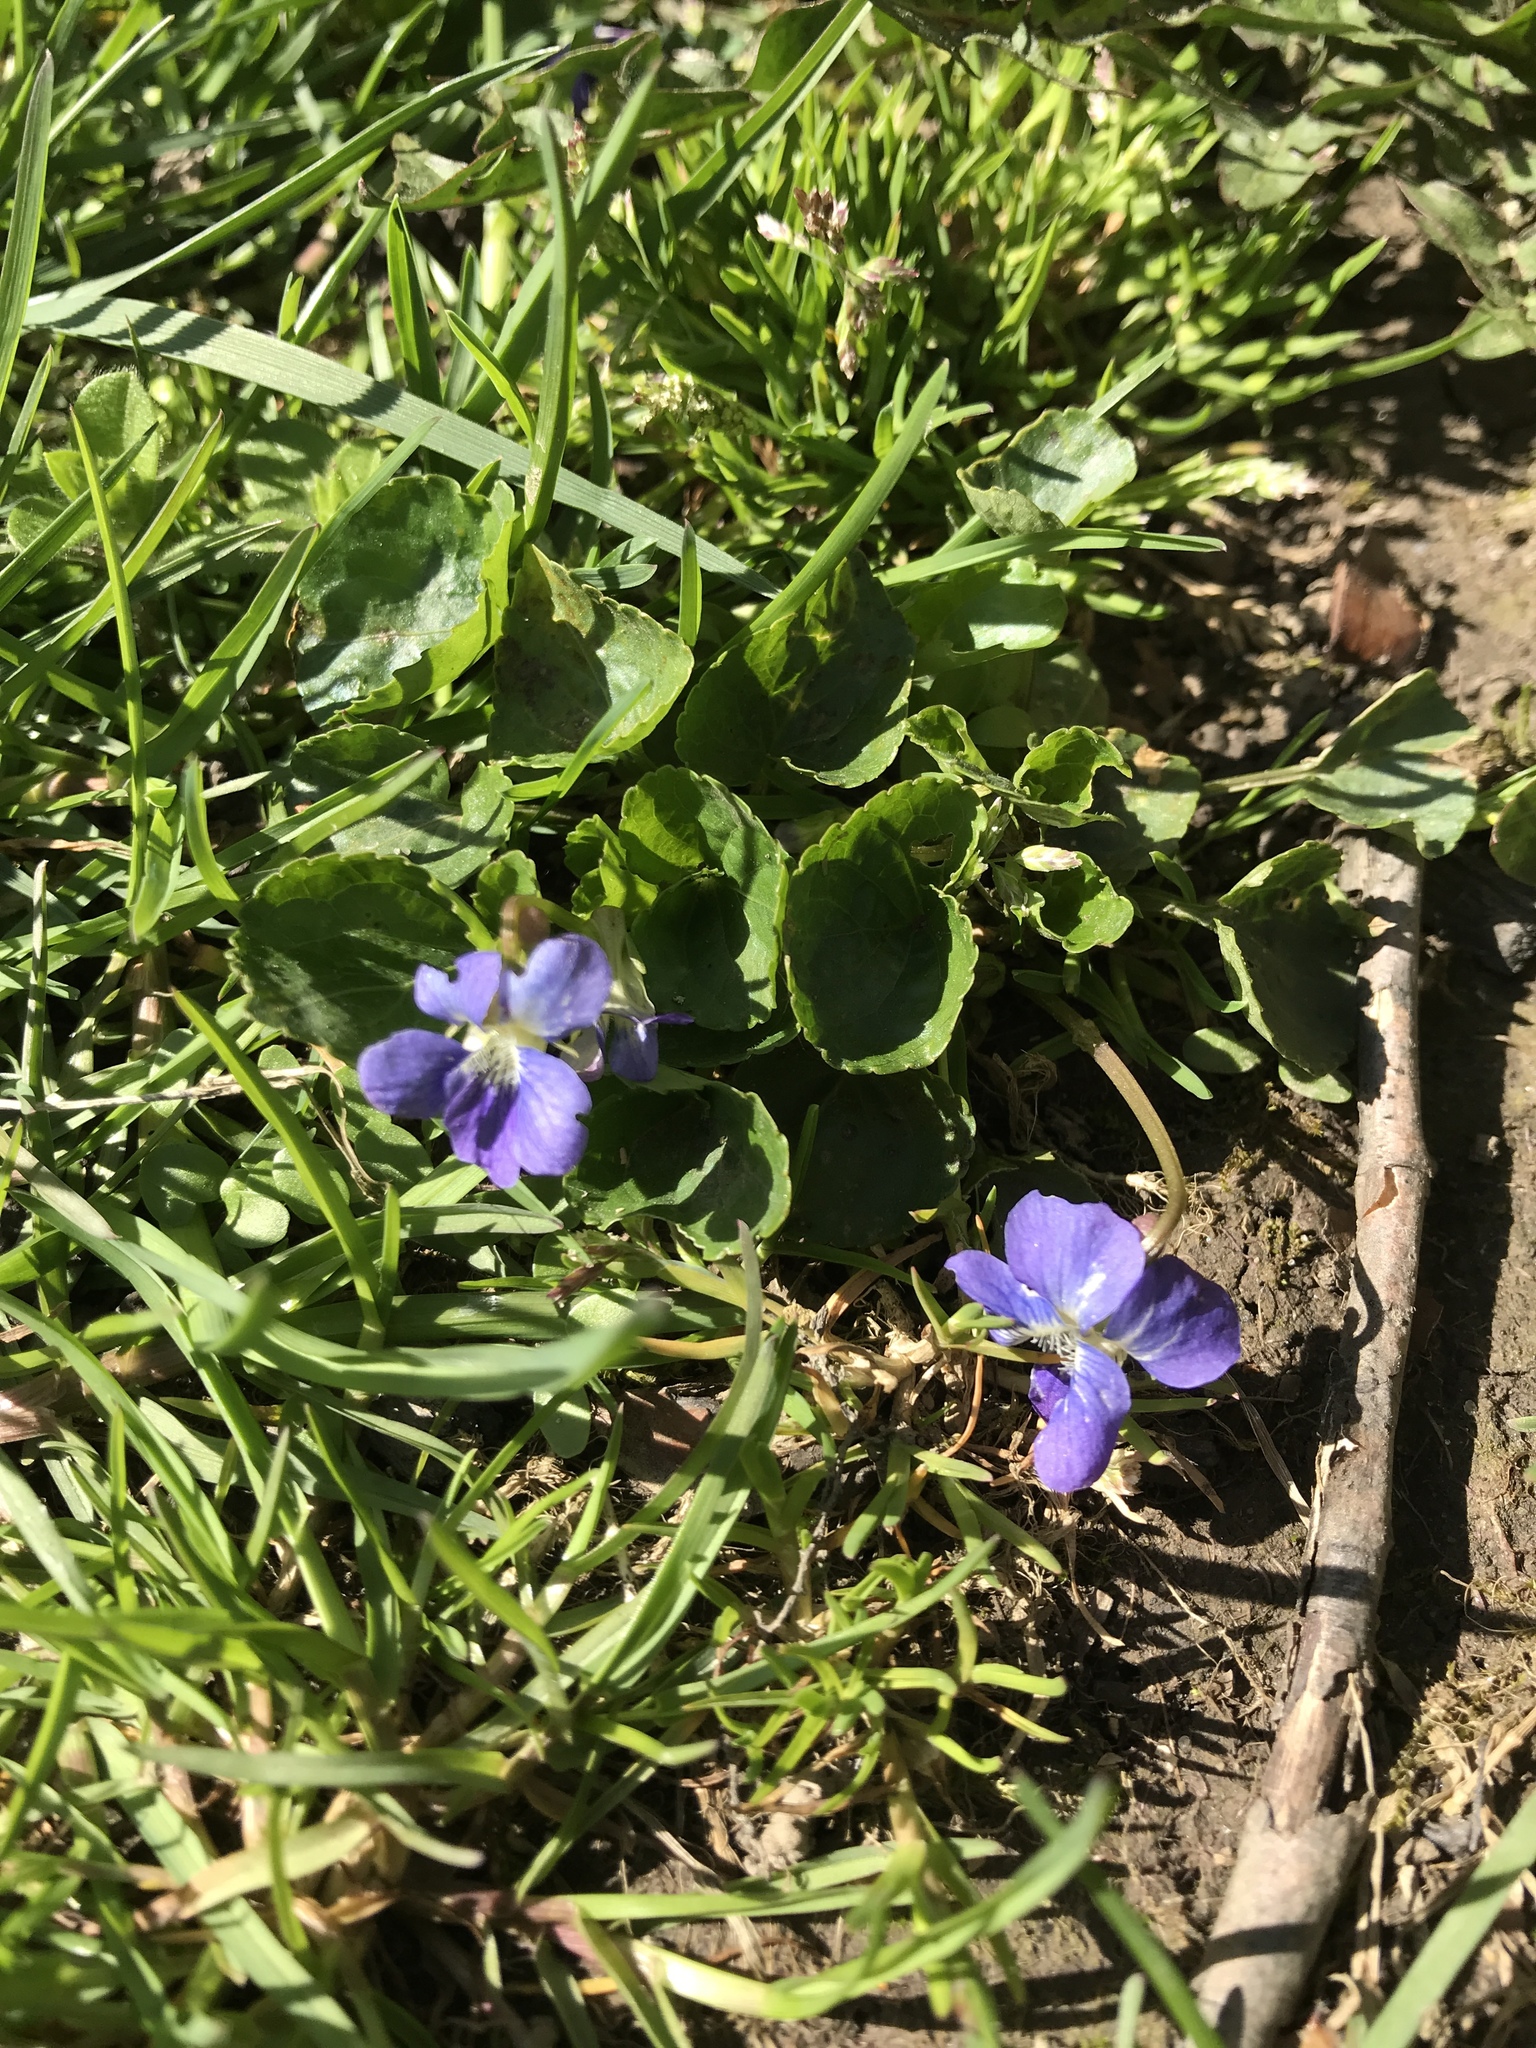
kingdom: Plantae
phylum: Tracheophyta
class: Magnoliopsida
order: Malpighiales
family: Violaceae
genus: Viola
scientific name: Viola sororia
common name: Dooryard violet
